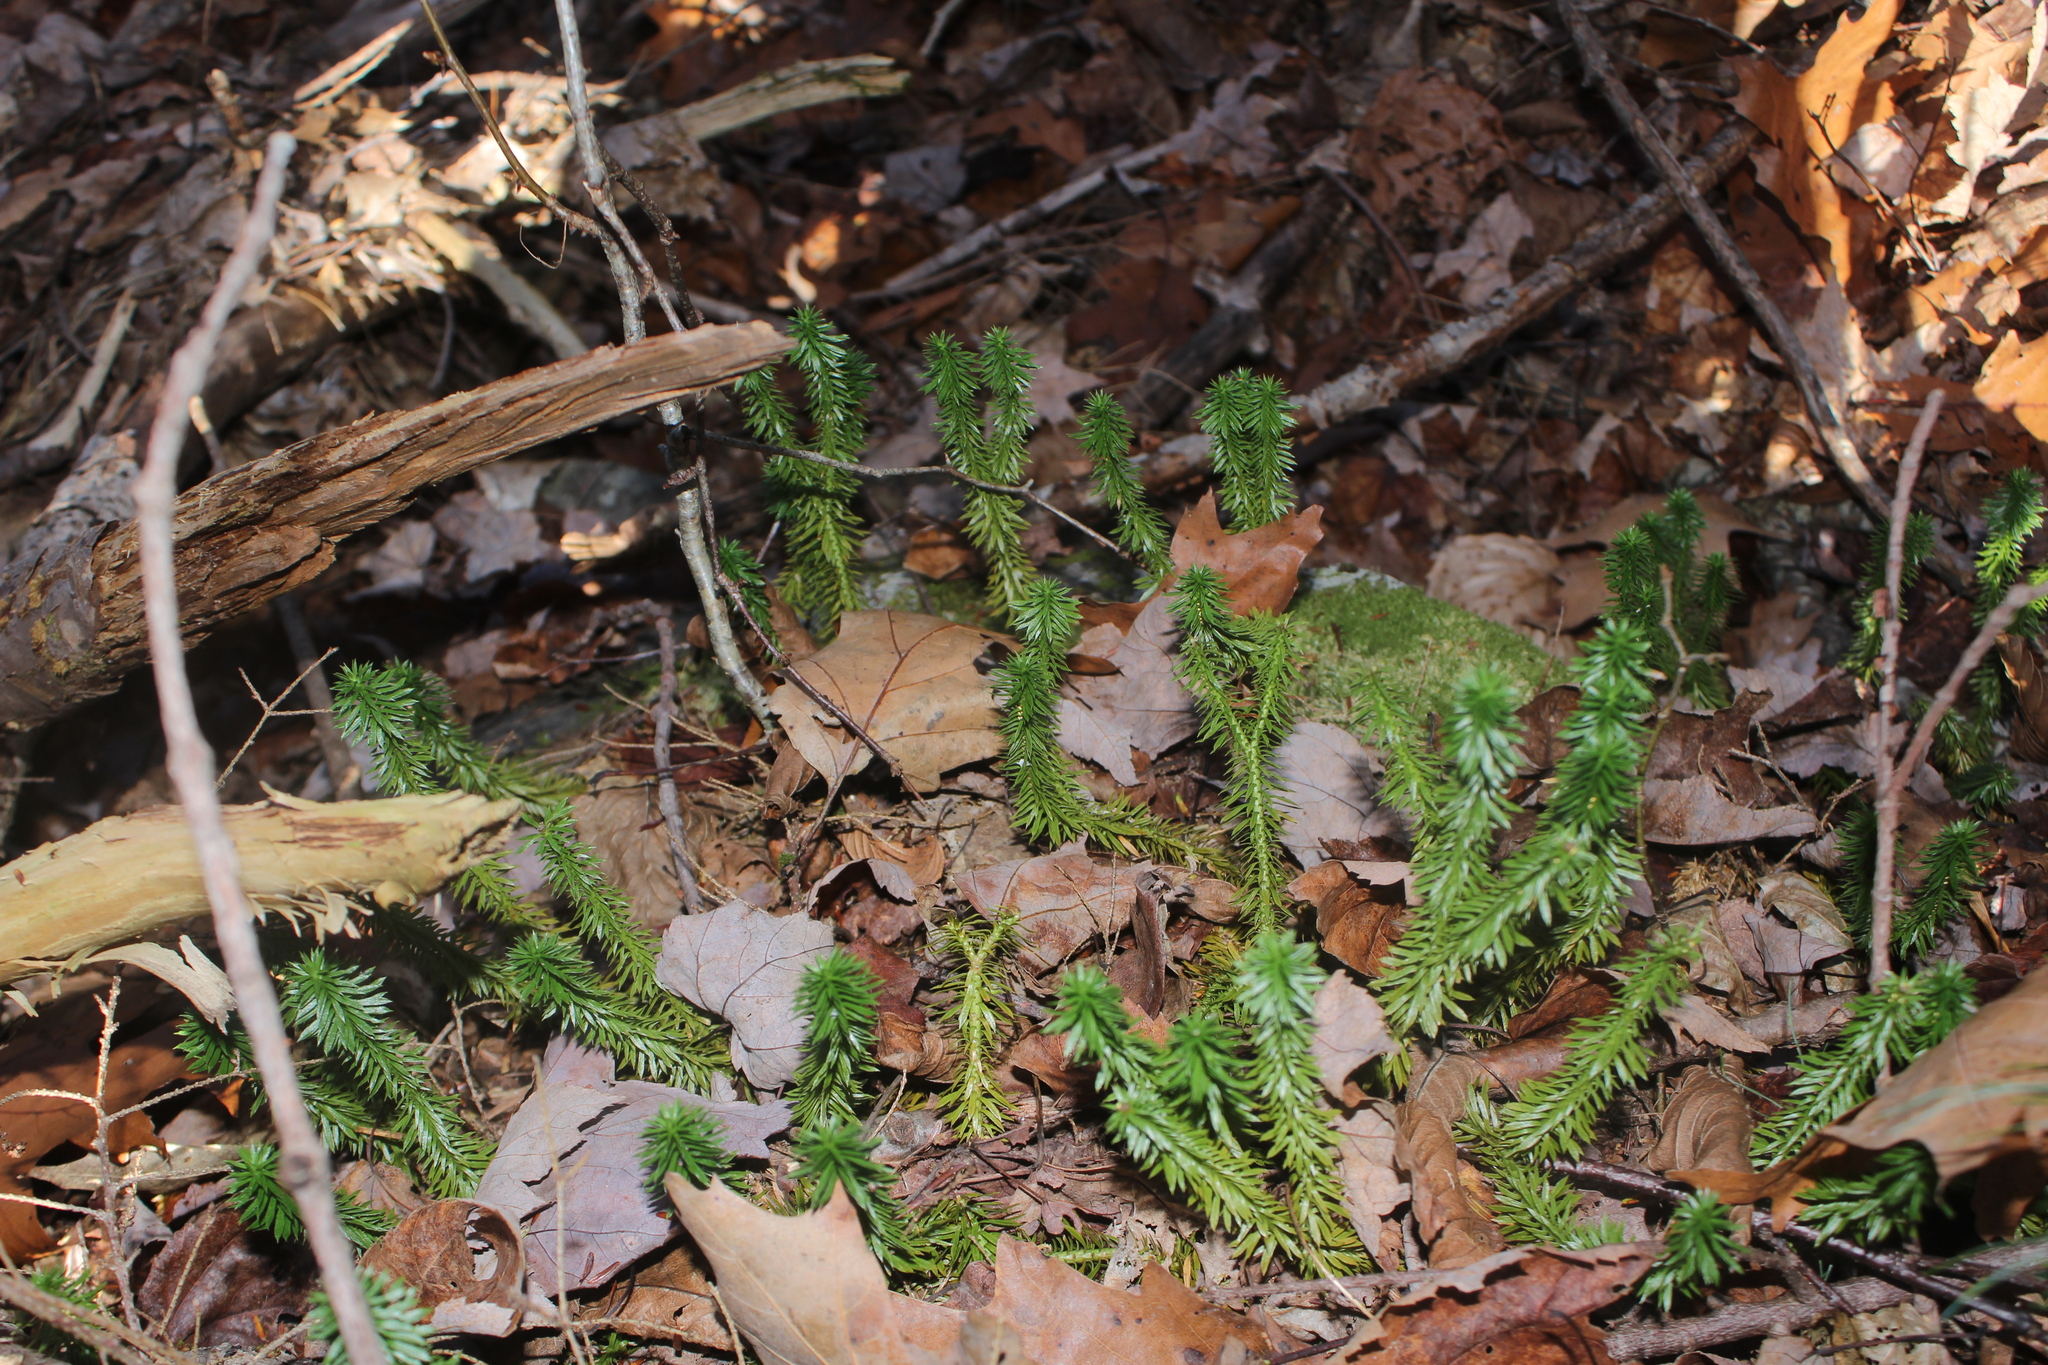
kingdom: Plantae
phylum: Tracheophyta
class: Lycopodiopsida
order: Lycopodiales
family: Lycopodiaceae
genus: Huperzia
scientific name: Huperzia lucidula
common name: Shining clubmoss
